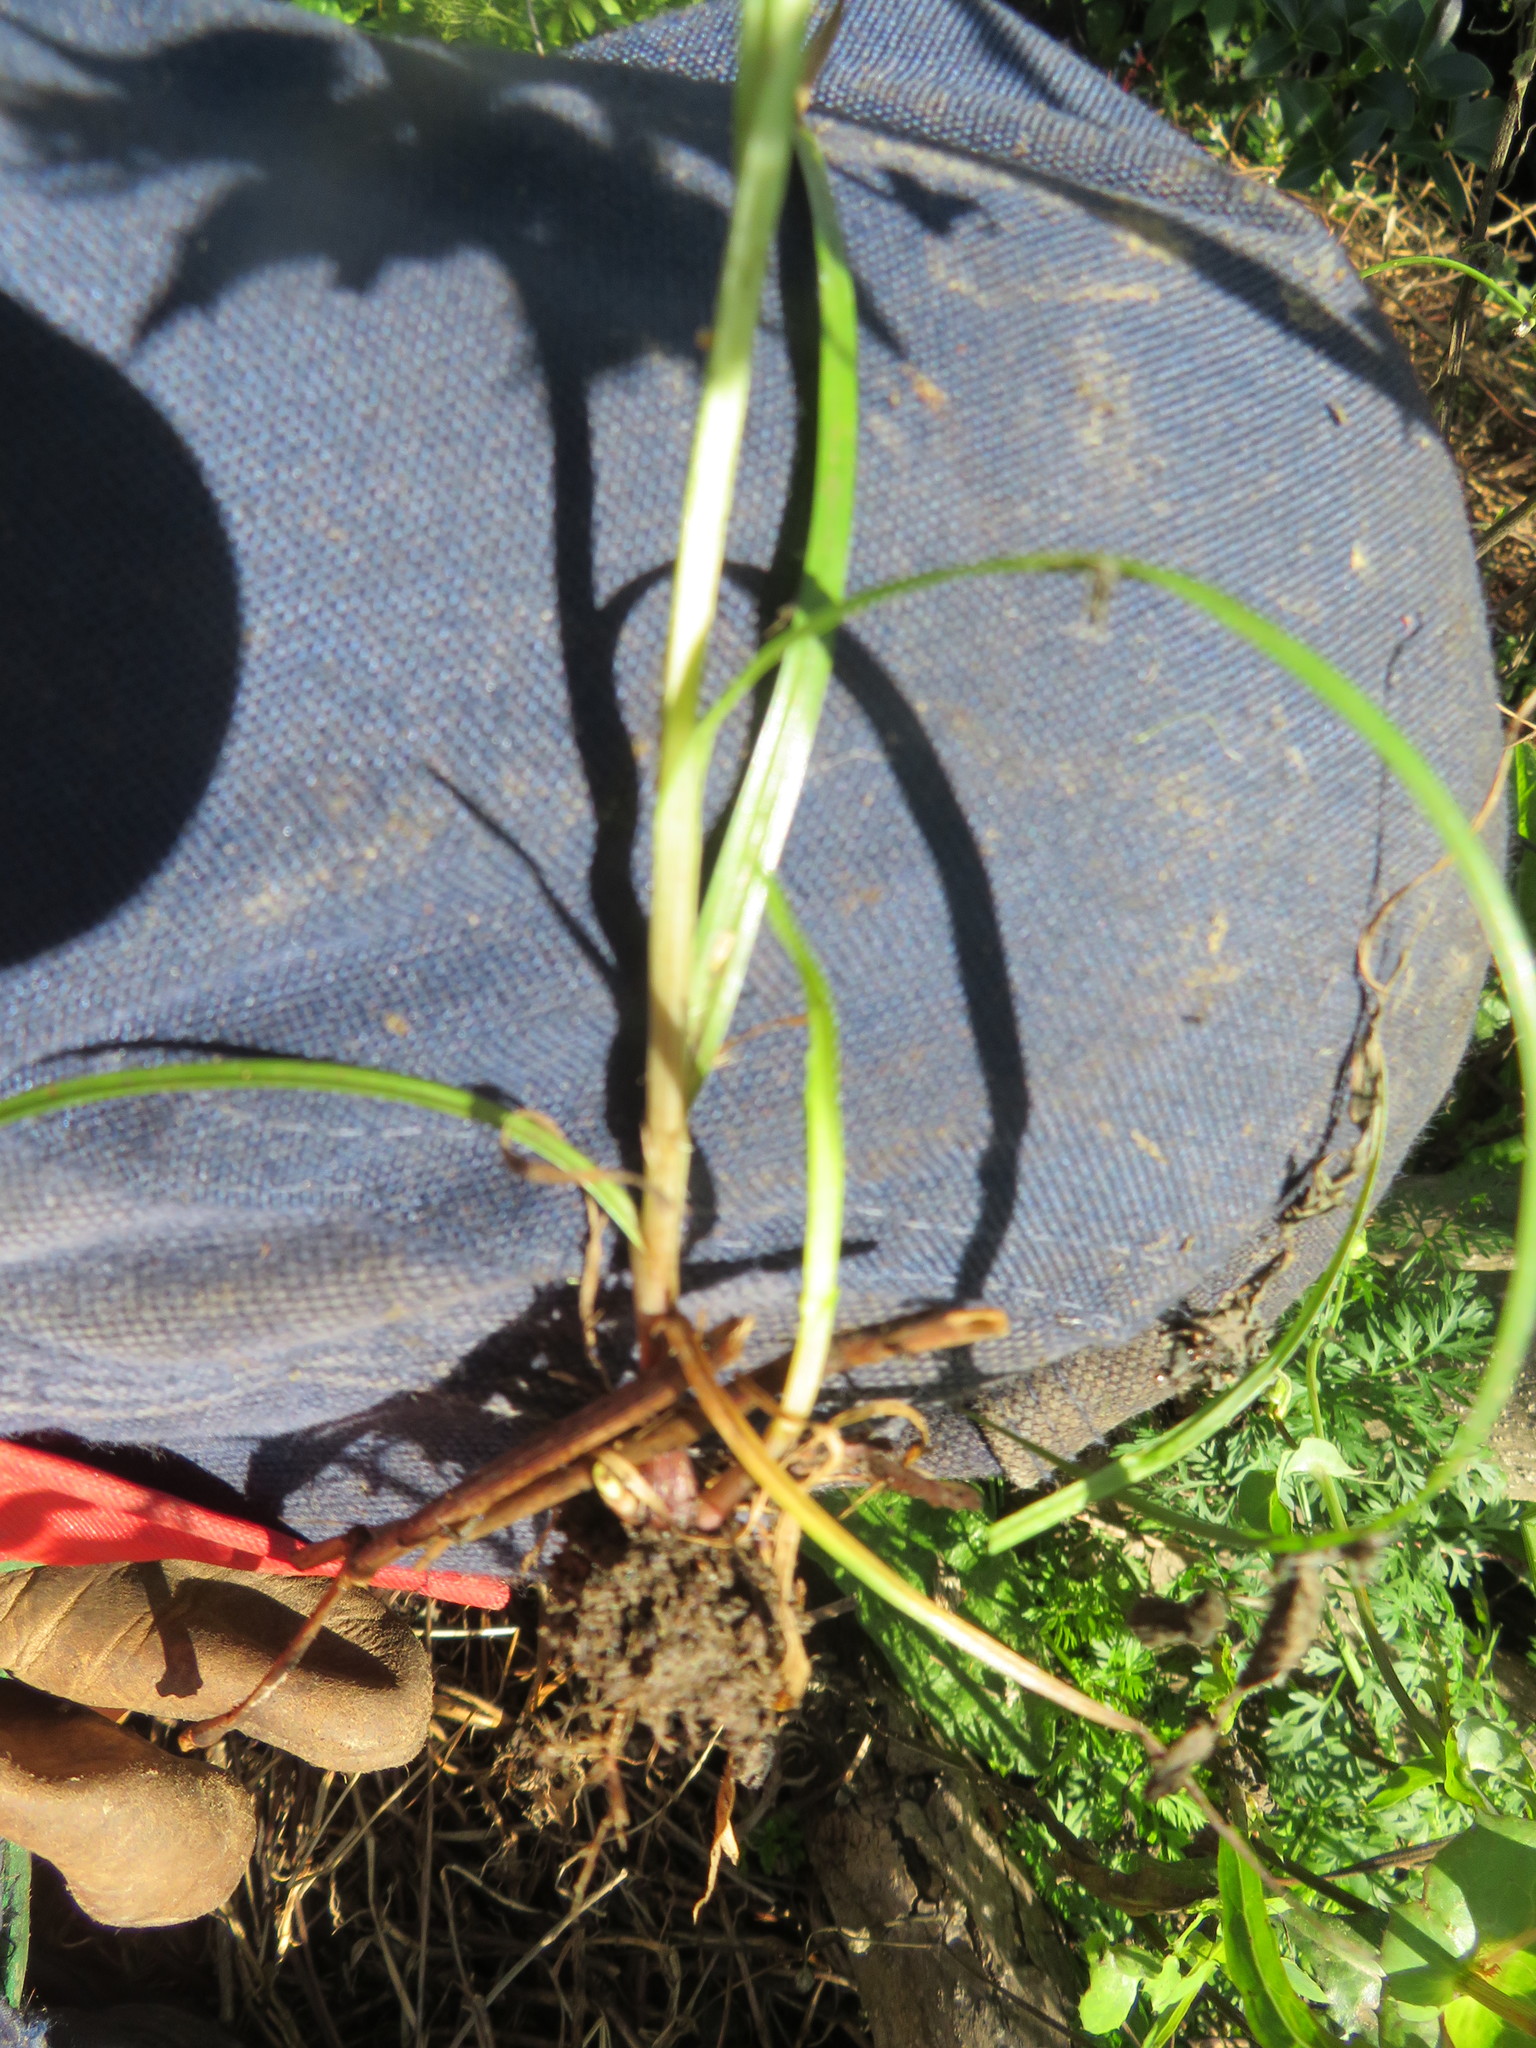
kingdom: Plantae
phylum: Tracheophyta
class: Liliopsida
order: Poales
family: Cyperaceae
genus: Cyperus
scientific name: Cyperus congestus
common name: Dense flat sedge
